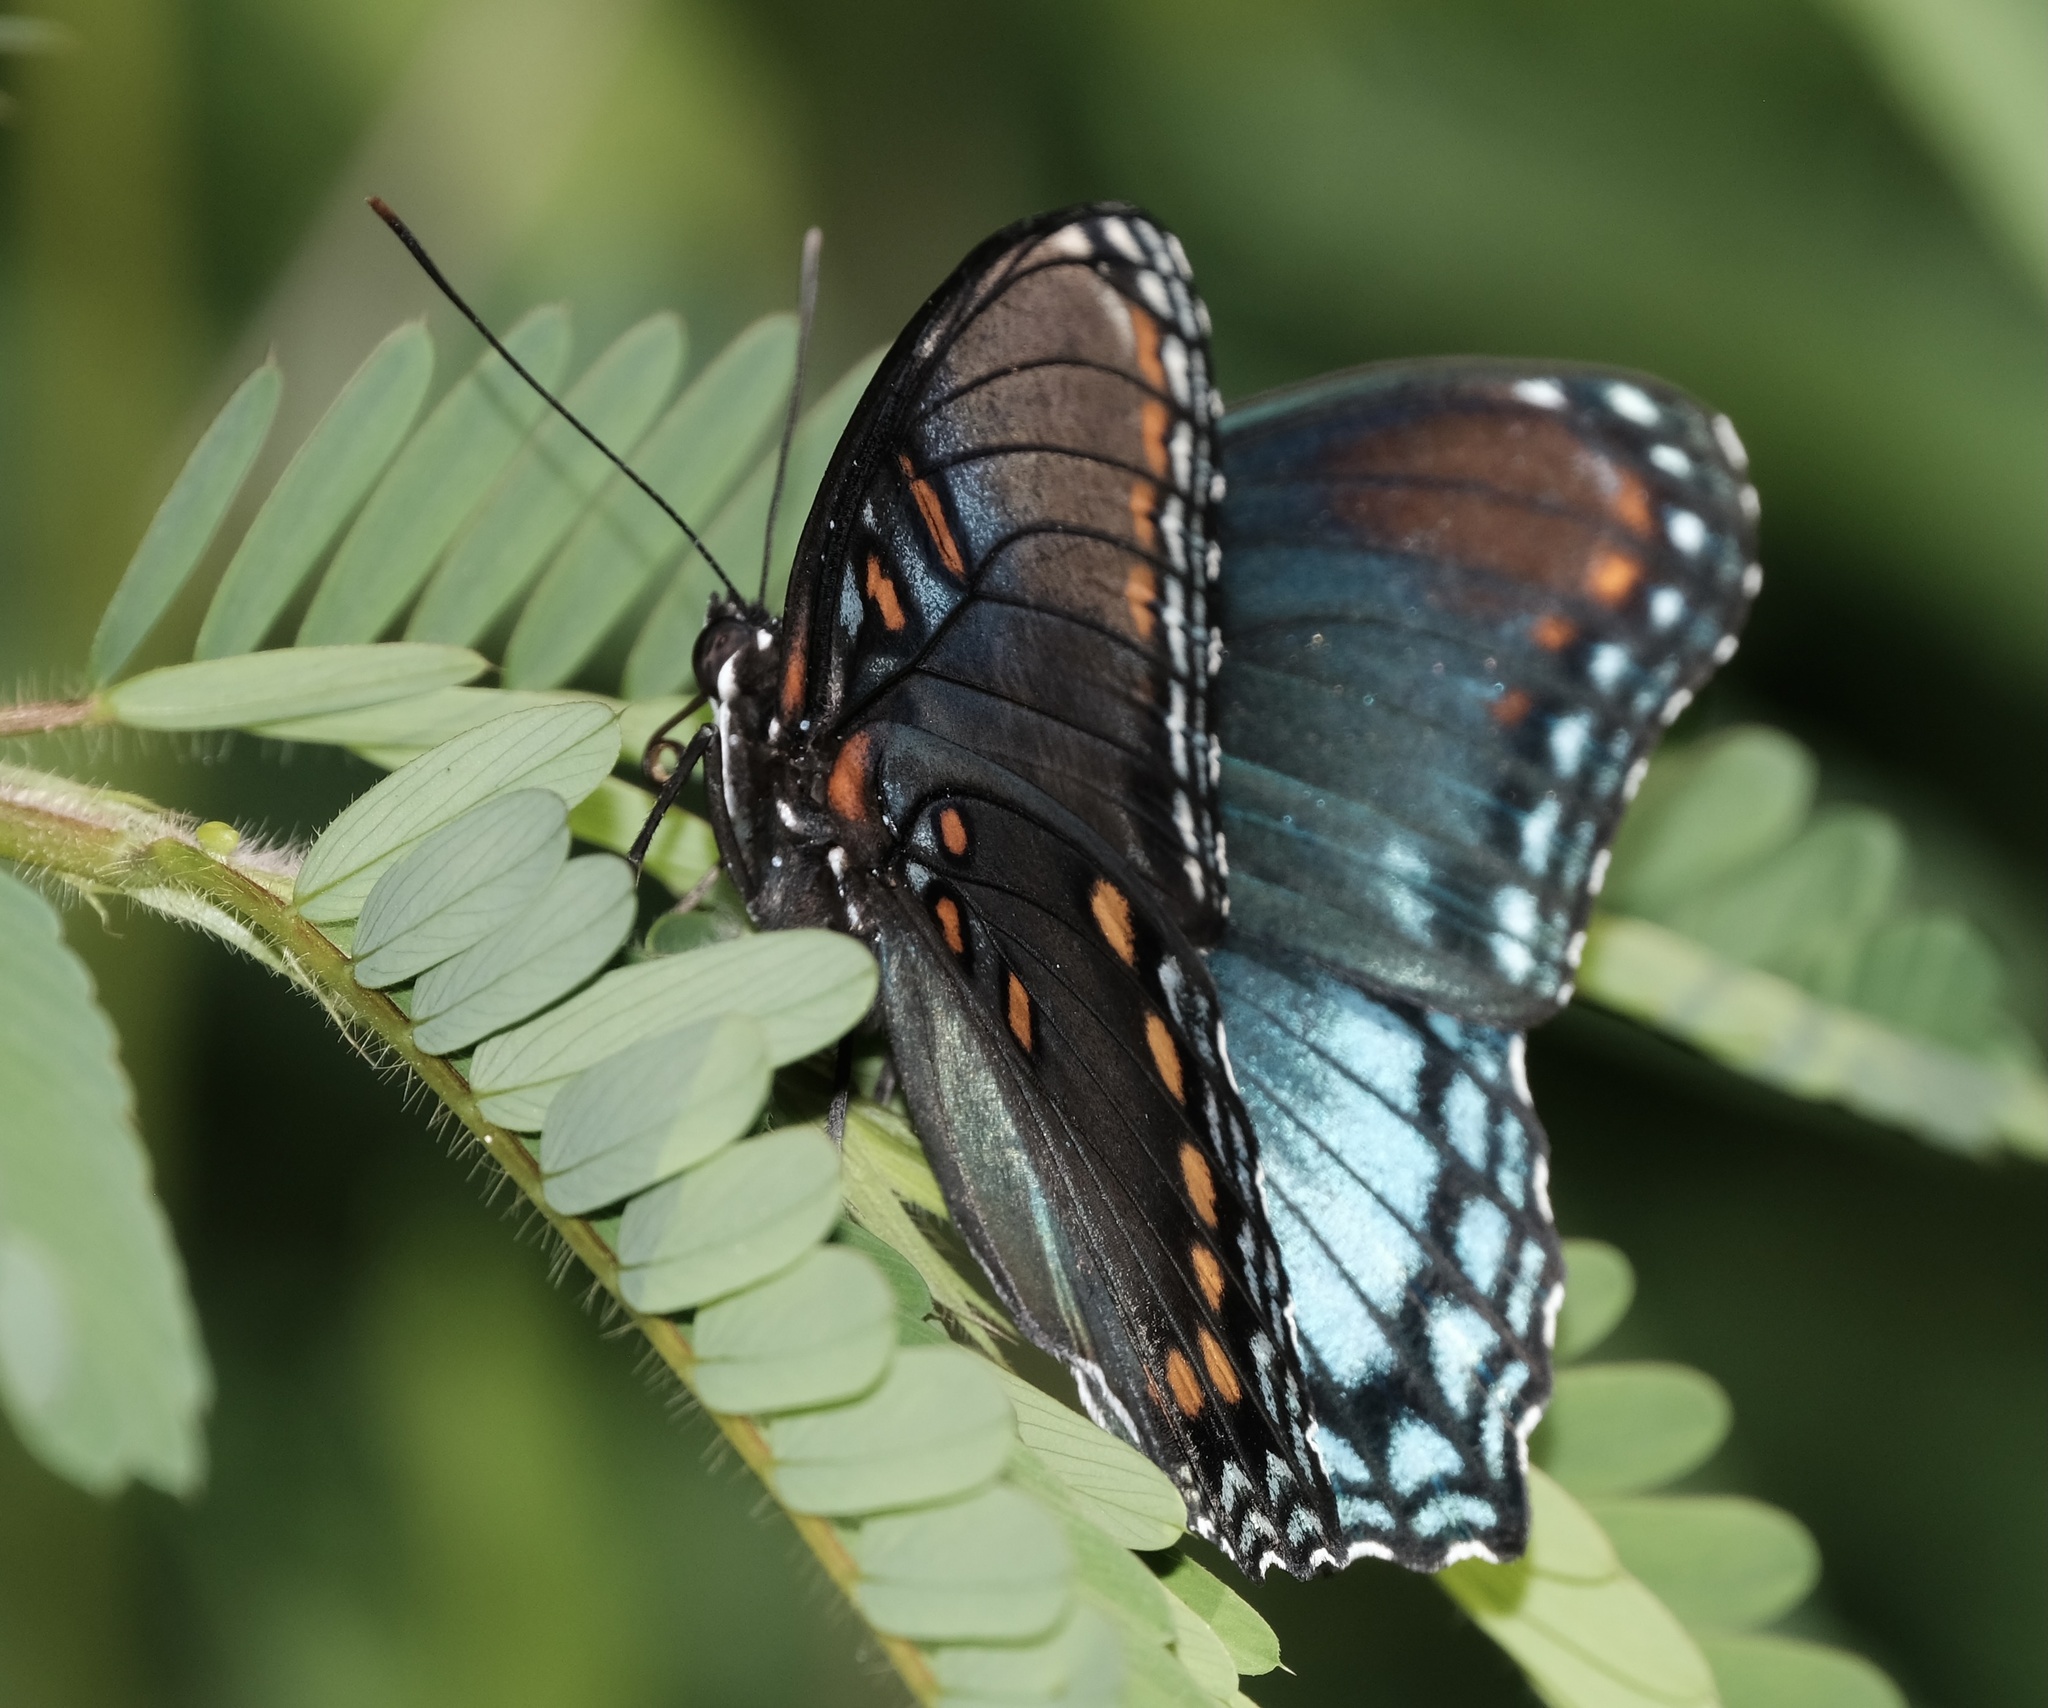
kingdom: Animalia
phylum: Arthropoda
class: Insecta
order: Lepidoptera
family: Nymphalidae
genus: Limenitis
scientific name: Limenitis arthemis
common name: Red-spotted admiral
